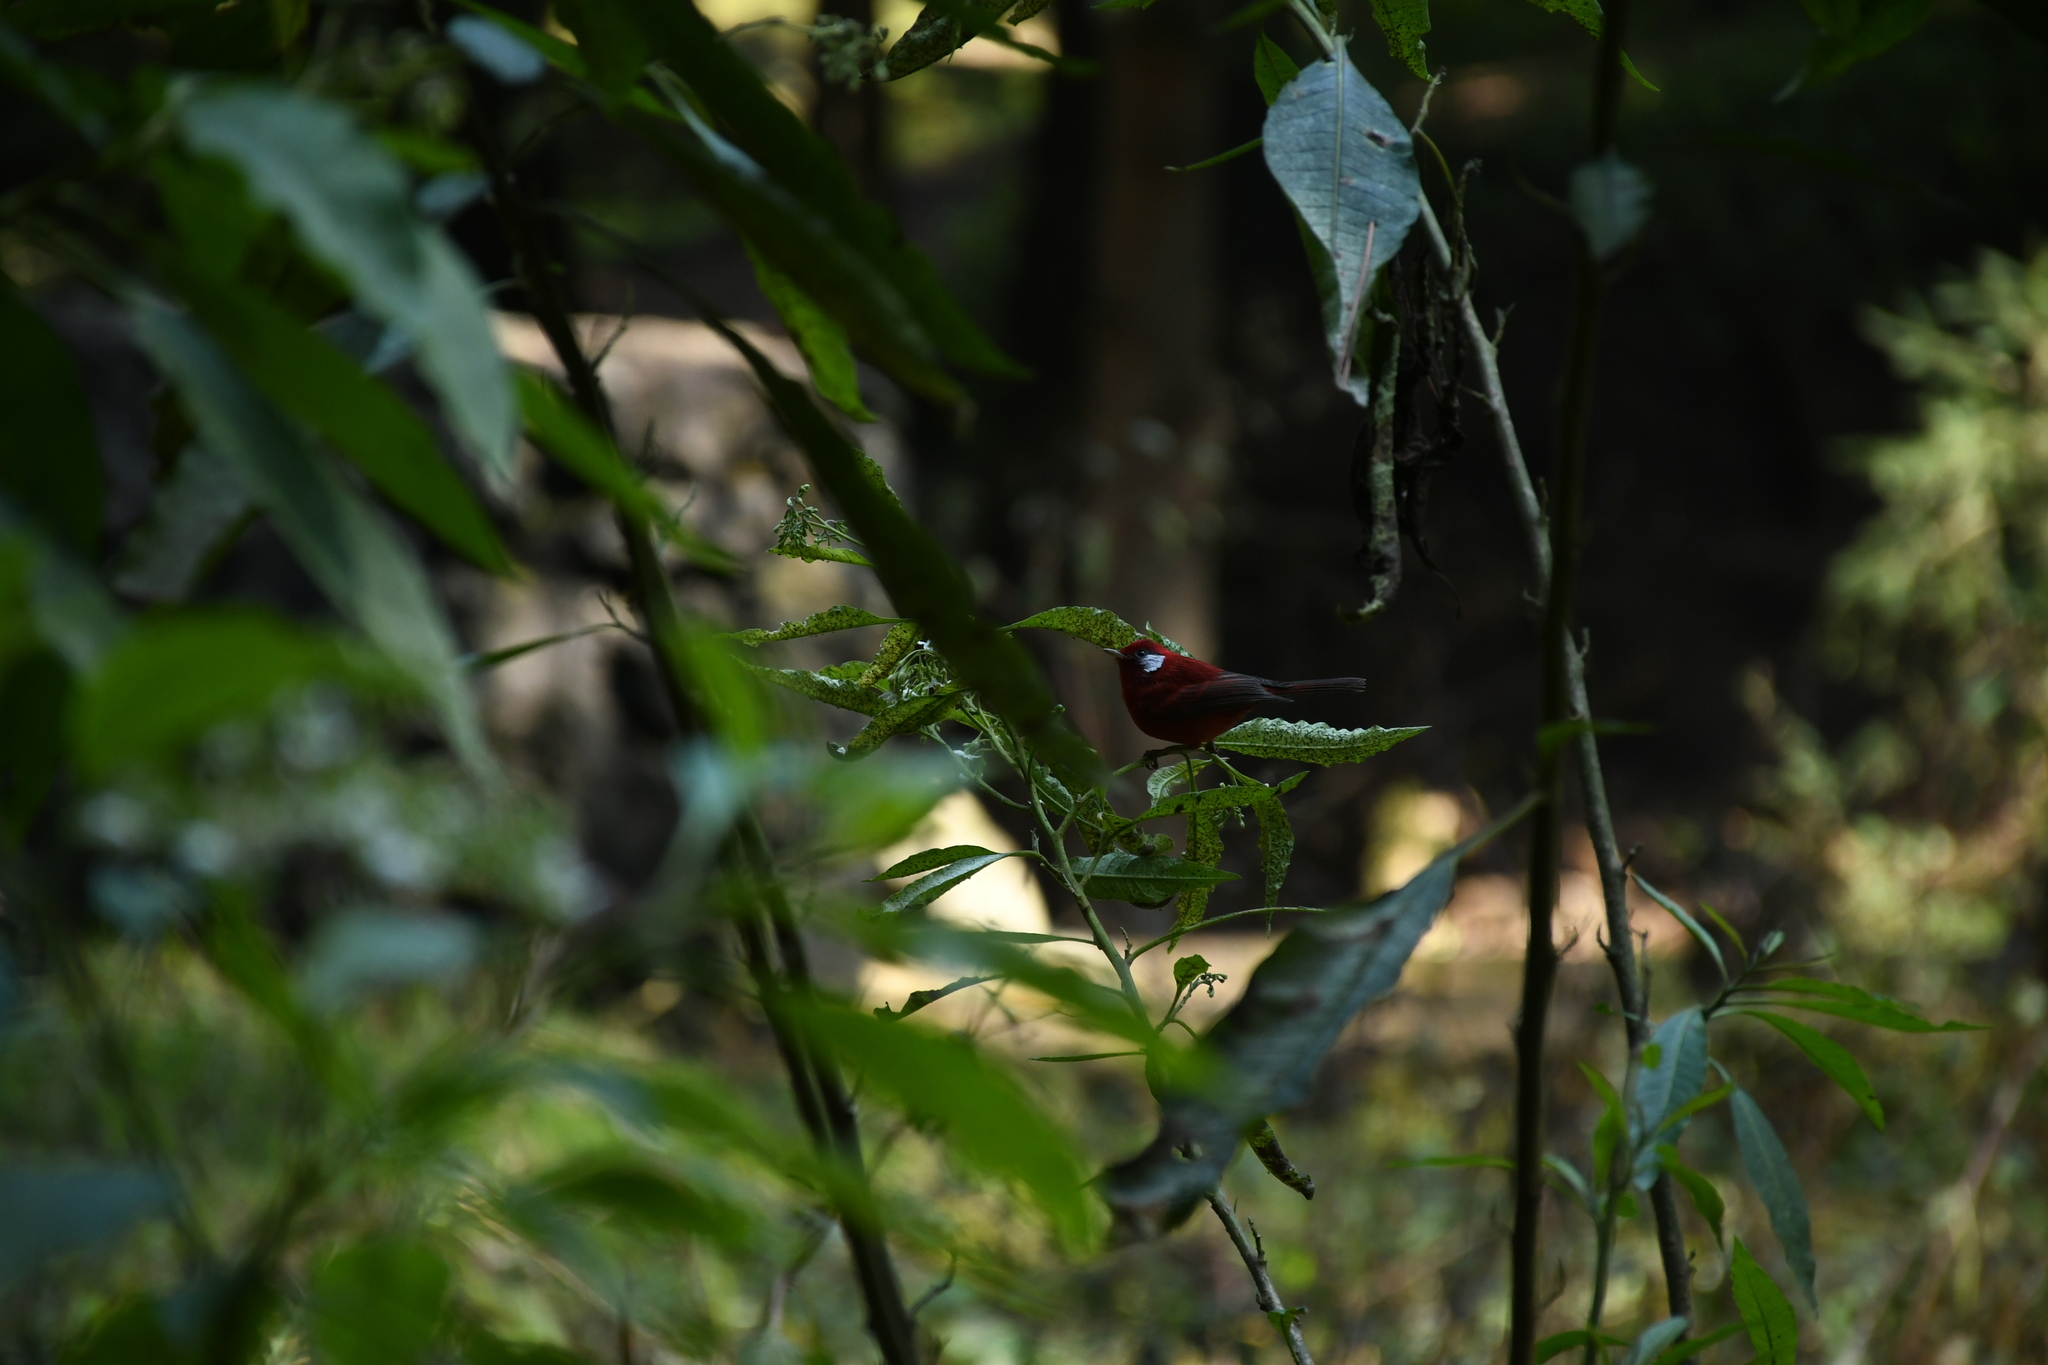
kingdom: Animalia
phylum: Chordata
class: Aves
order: Passeriformes
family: Parulidae
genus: Cardellina
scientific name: Cardellina rubra
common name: Red warbler
